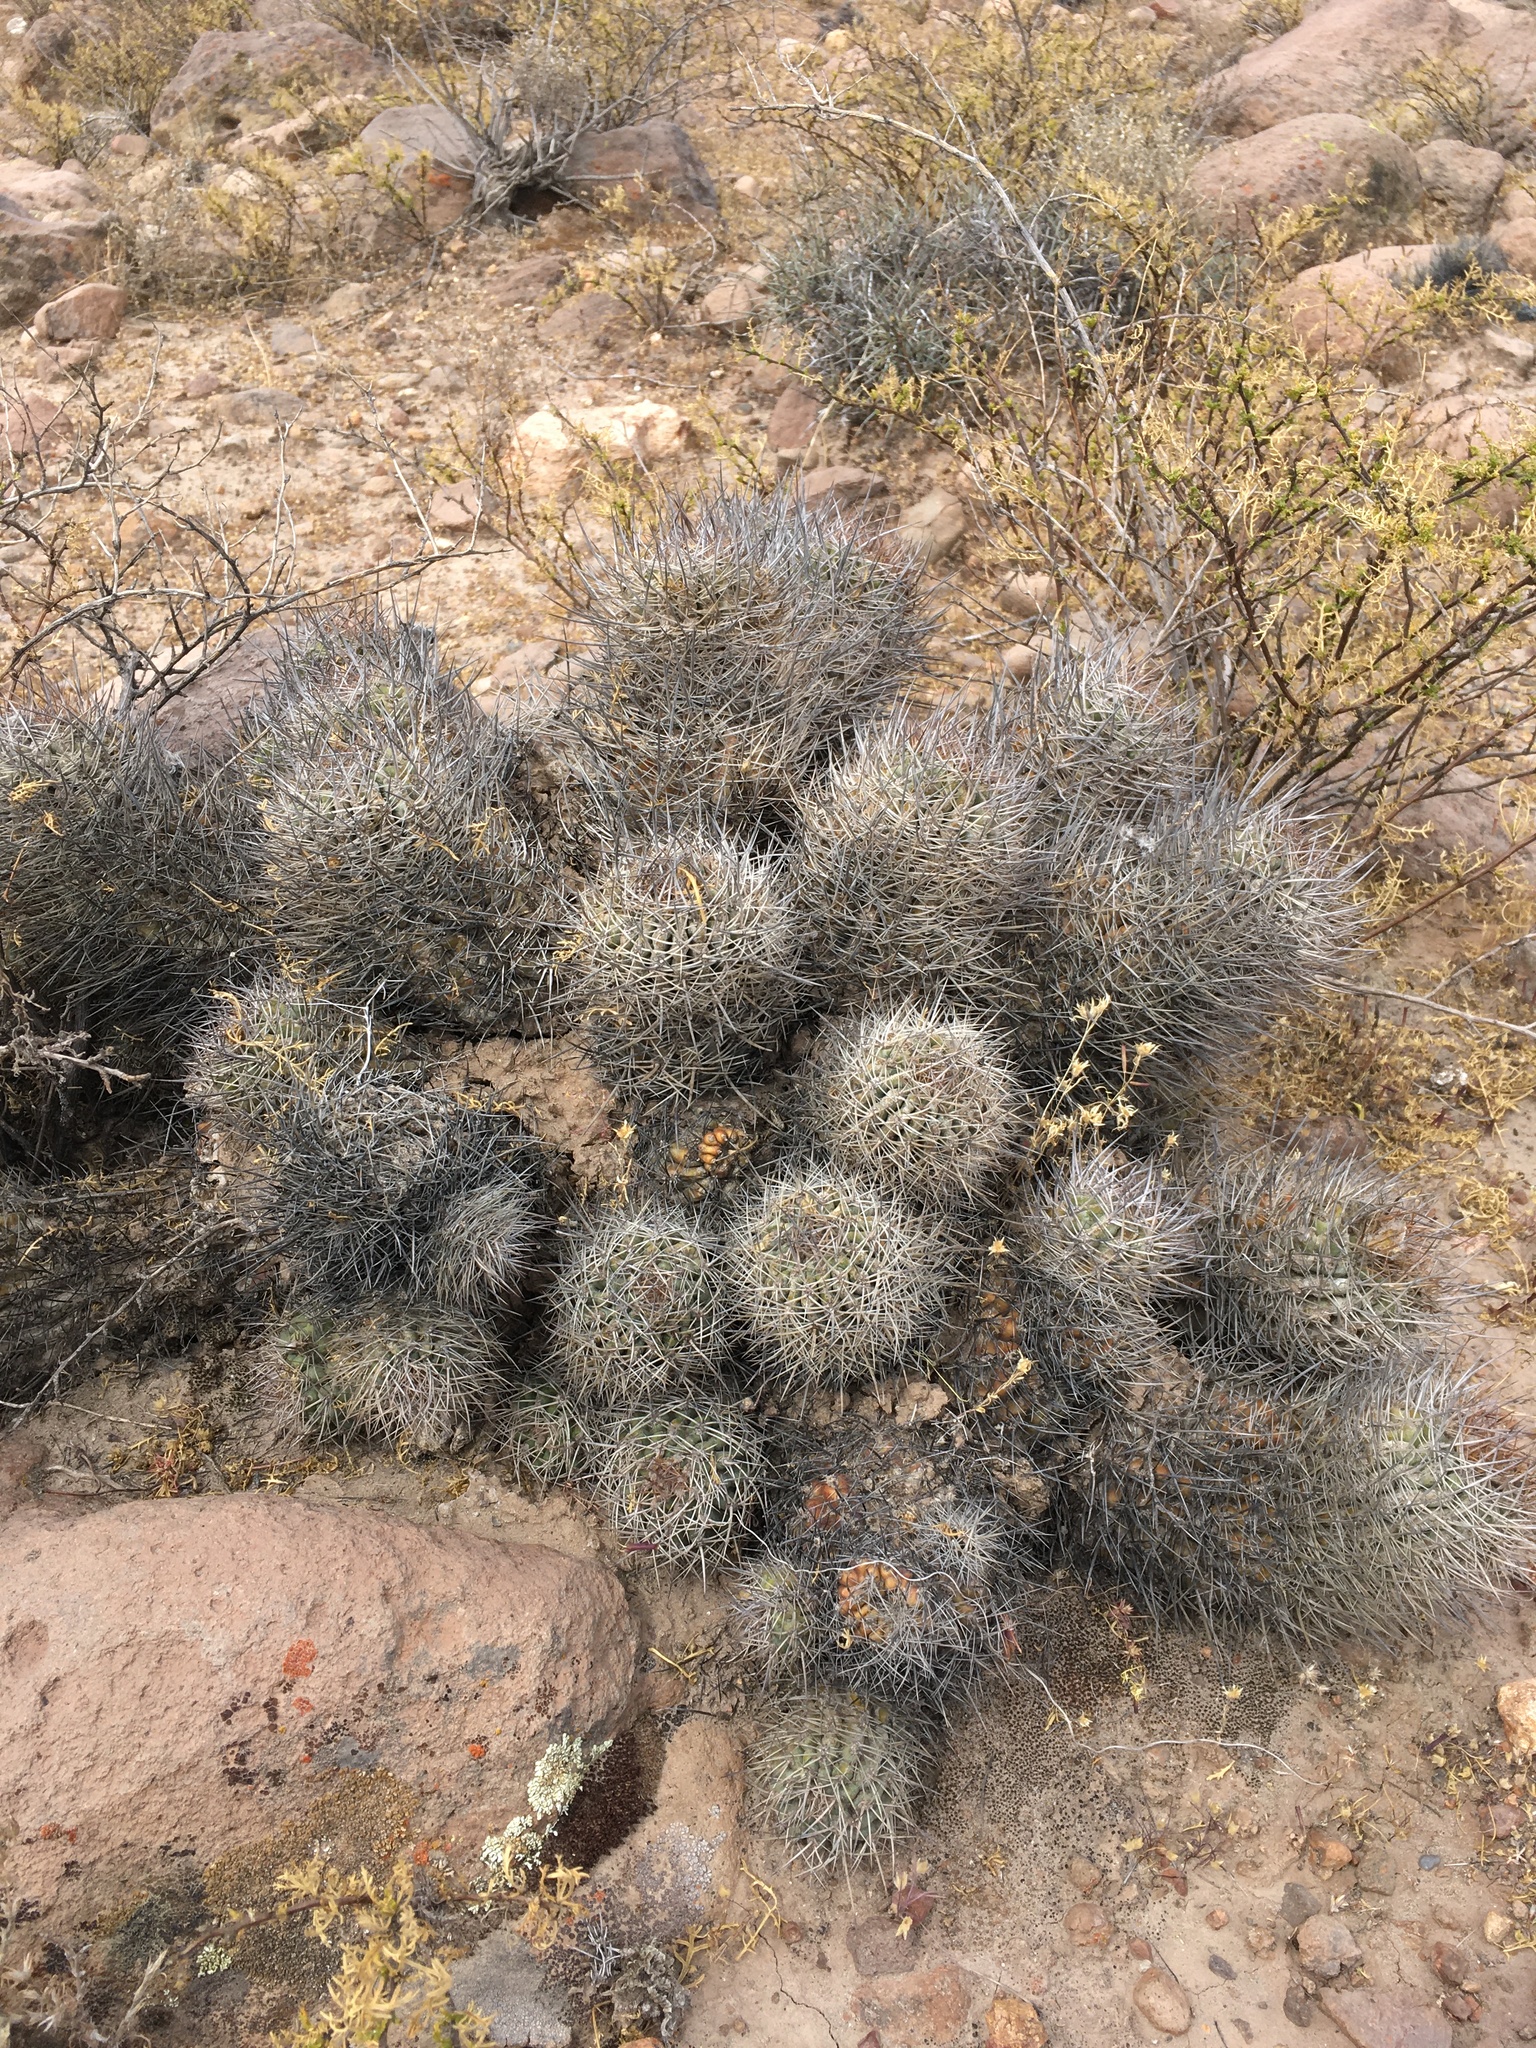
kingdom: Plantae
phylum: Tracheophyta
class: Magnoliopsida
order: Caryophyllales
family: Cactaceae
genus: Oreocereus
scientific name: Oreocereus hempelianus
